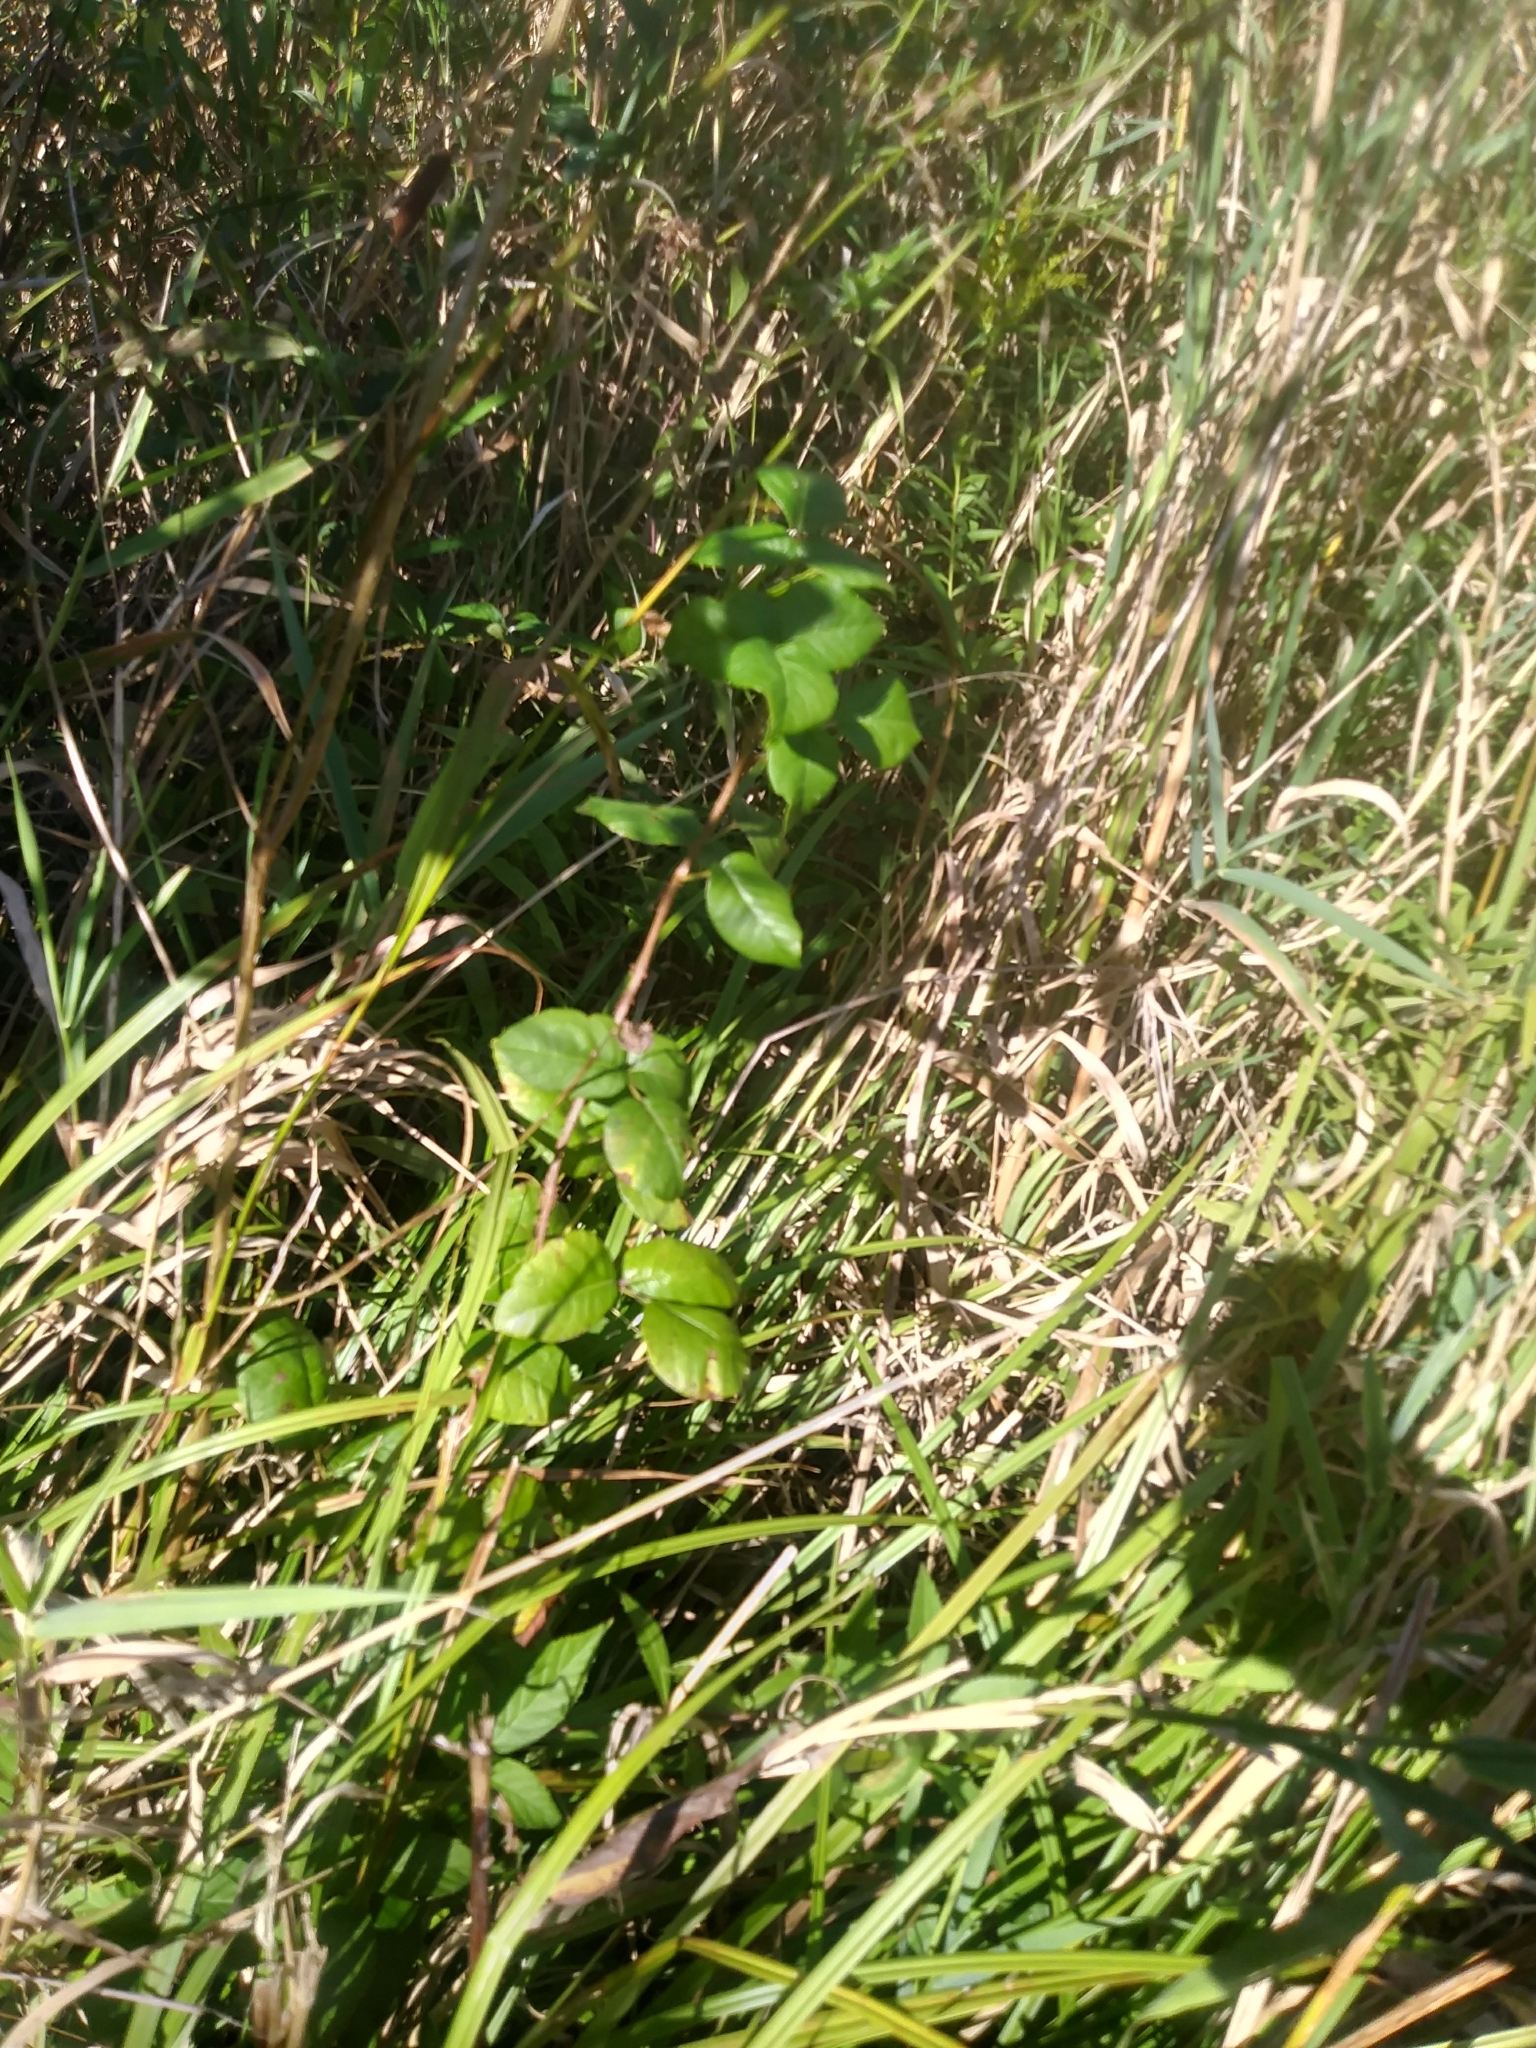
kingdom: Plantae
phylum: Tracheophyta
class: Magnoliopsida
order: Sapindales
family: Anacardiaceae
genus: Toxicodendron
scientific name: Toxicodendron radicans
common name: Poison ivy
